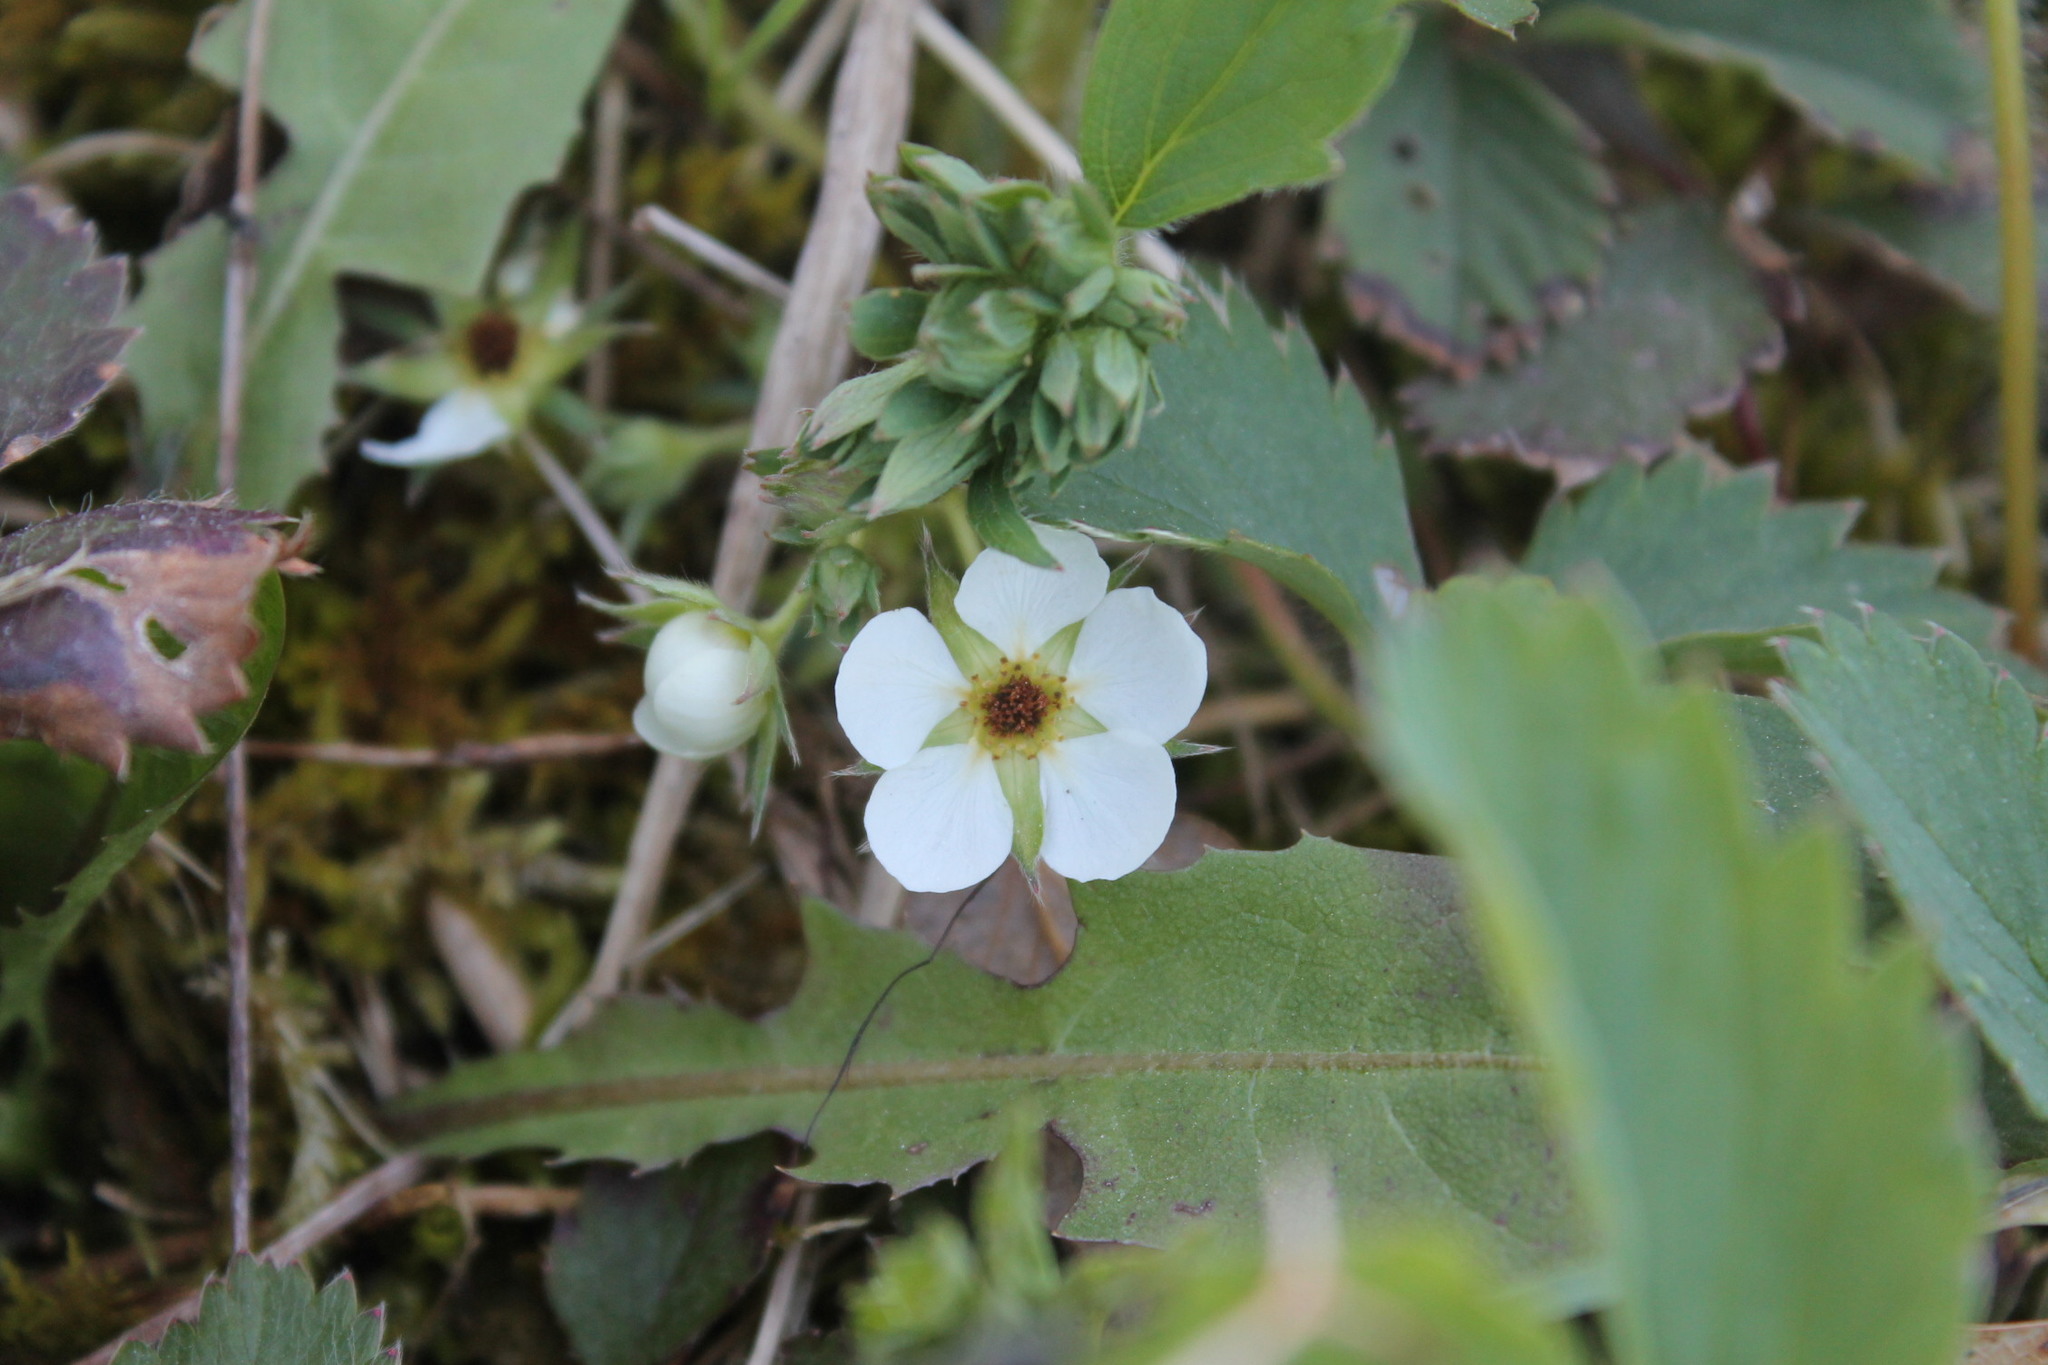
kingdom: Plantae
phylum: Tracheophyta
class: Magnoliopsida
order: Rosales
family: Rosaceae
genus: Fragaria
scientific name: Fragaria virginiana
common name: Thickleaved wild strawberry
